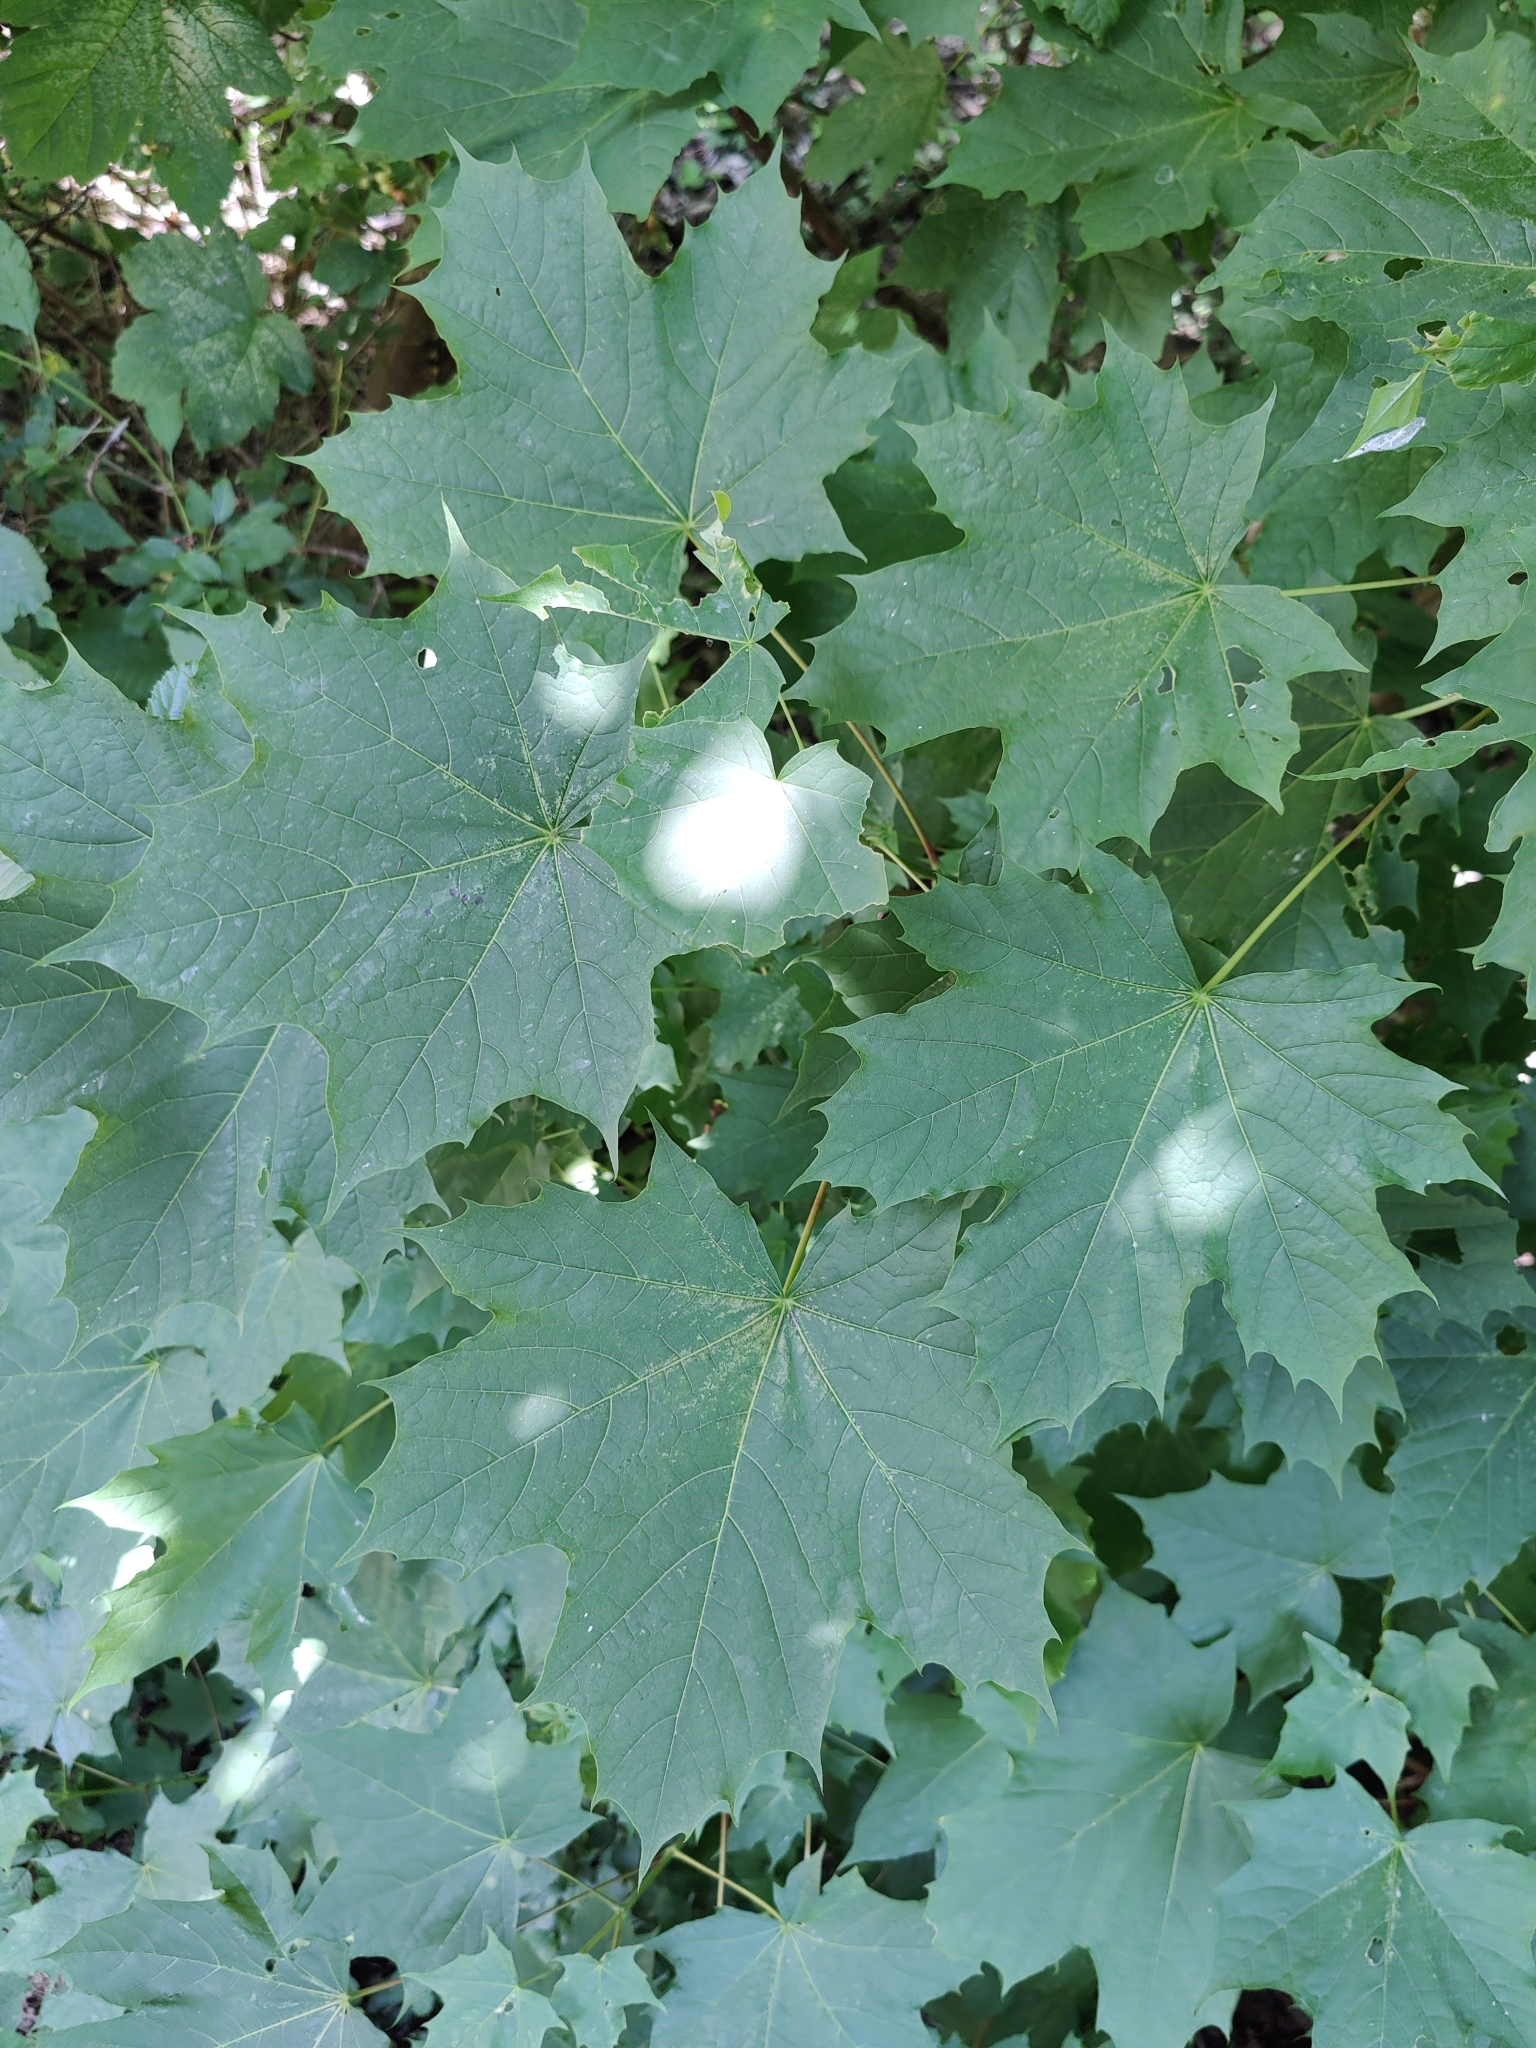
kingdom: Plantae
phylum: Tracheophyta
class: Magnoliopsida
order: Sapindales
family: Sapindaceae
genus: Acer
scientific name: Acer platanoides
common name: Norway maple
